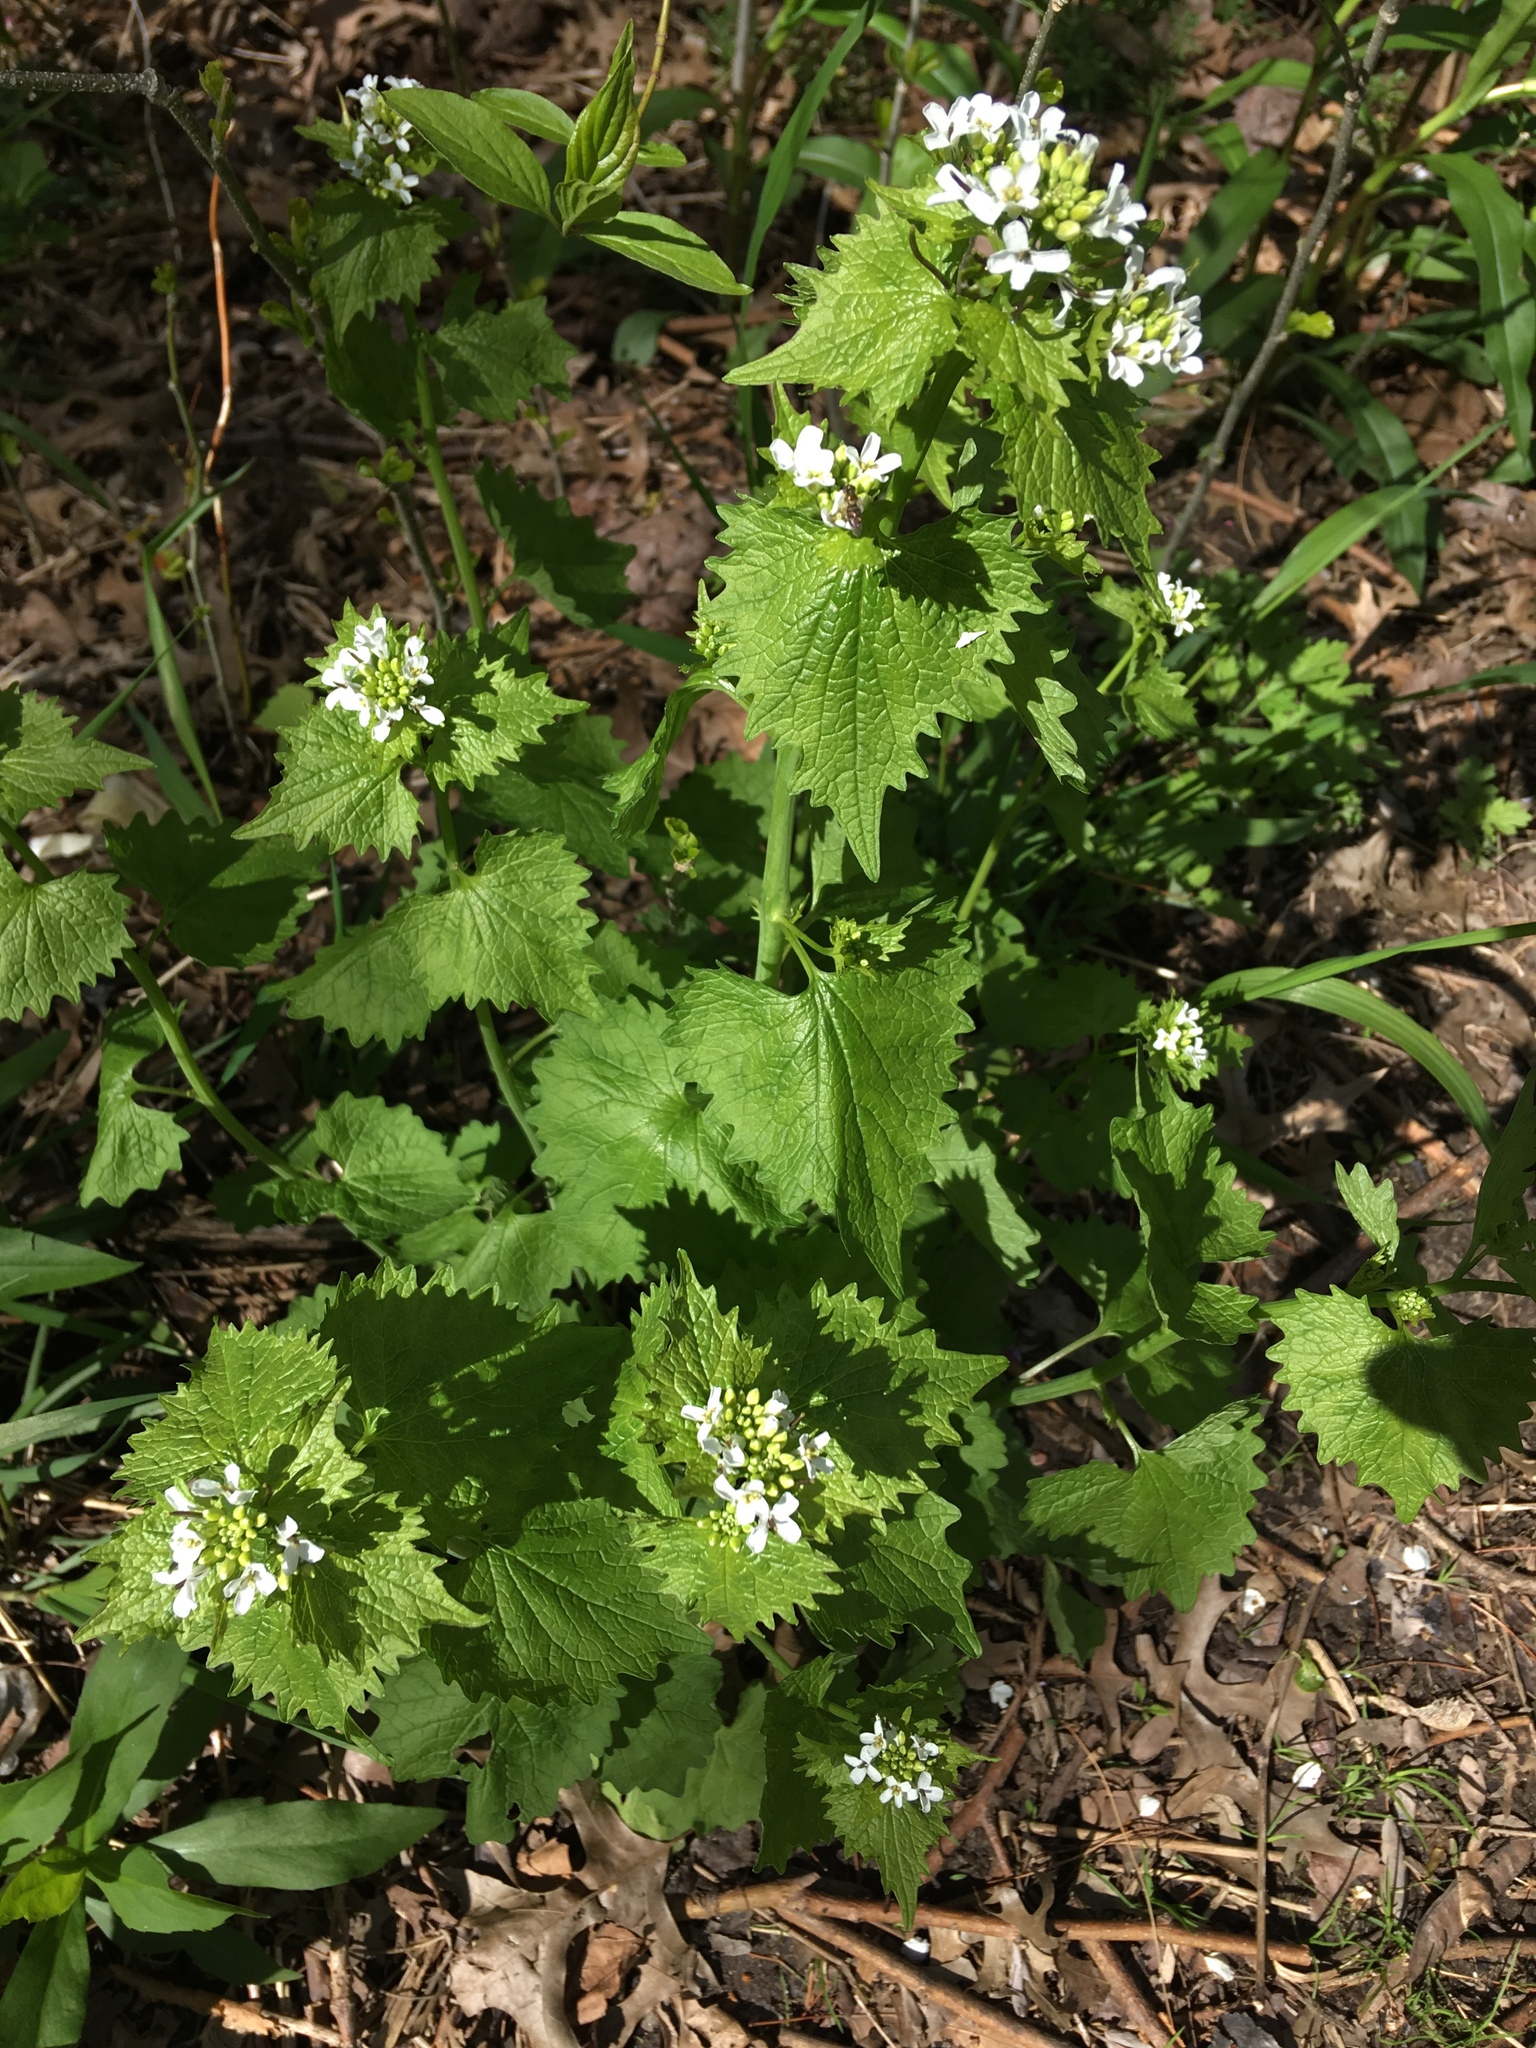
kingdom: Plantae
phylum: Tracheophyta
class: Magnoliopsida
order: Brassicales
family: Brassicaceae
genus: Alliaria
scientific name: Alliaria petiolata
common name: Garlic mustard
